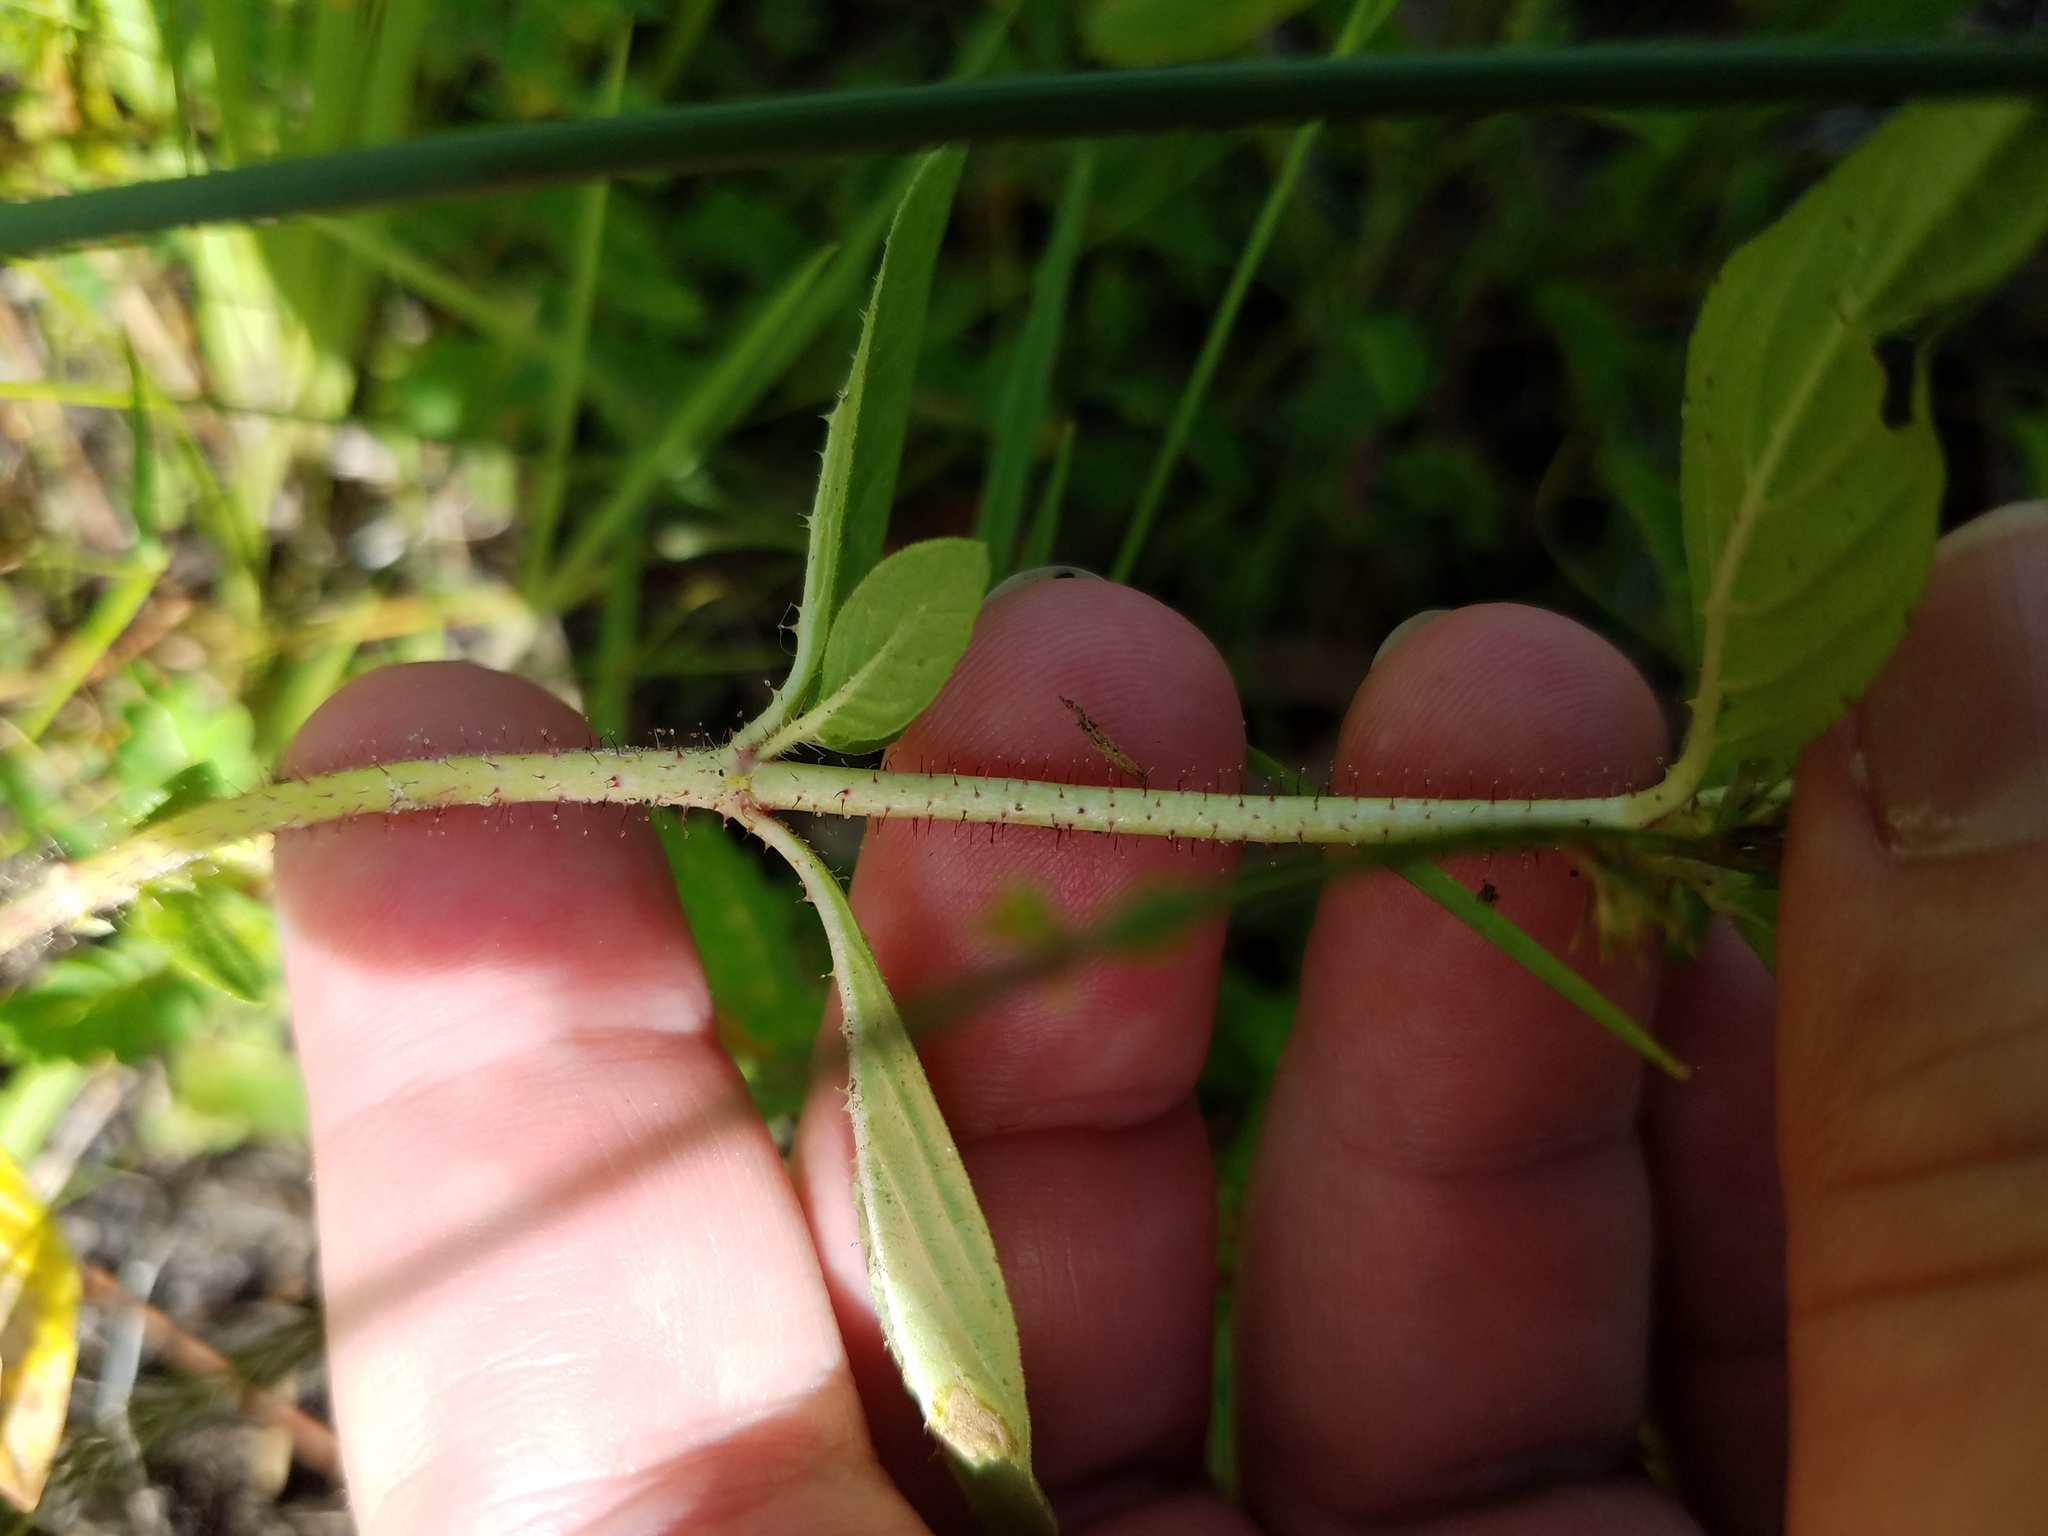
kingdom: Plantae
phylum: Tracheophyta
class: Magnoliopsida
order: Myrtales
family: Lythraceae
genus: Cuphea
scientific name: Cuphea carthagenensis
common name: Colombian waxweed
